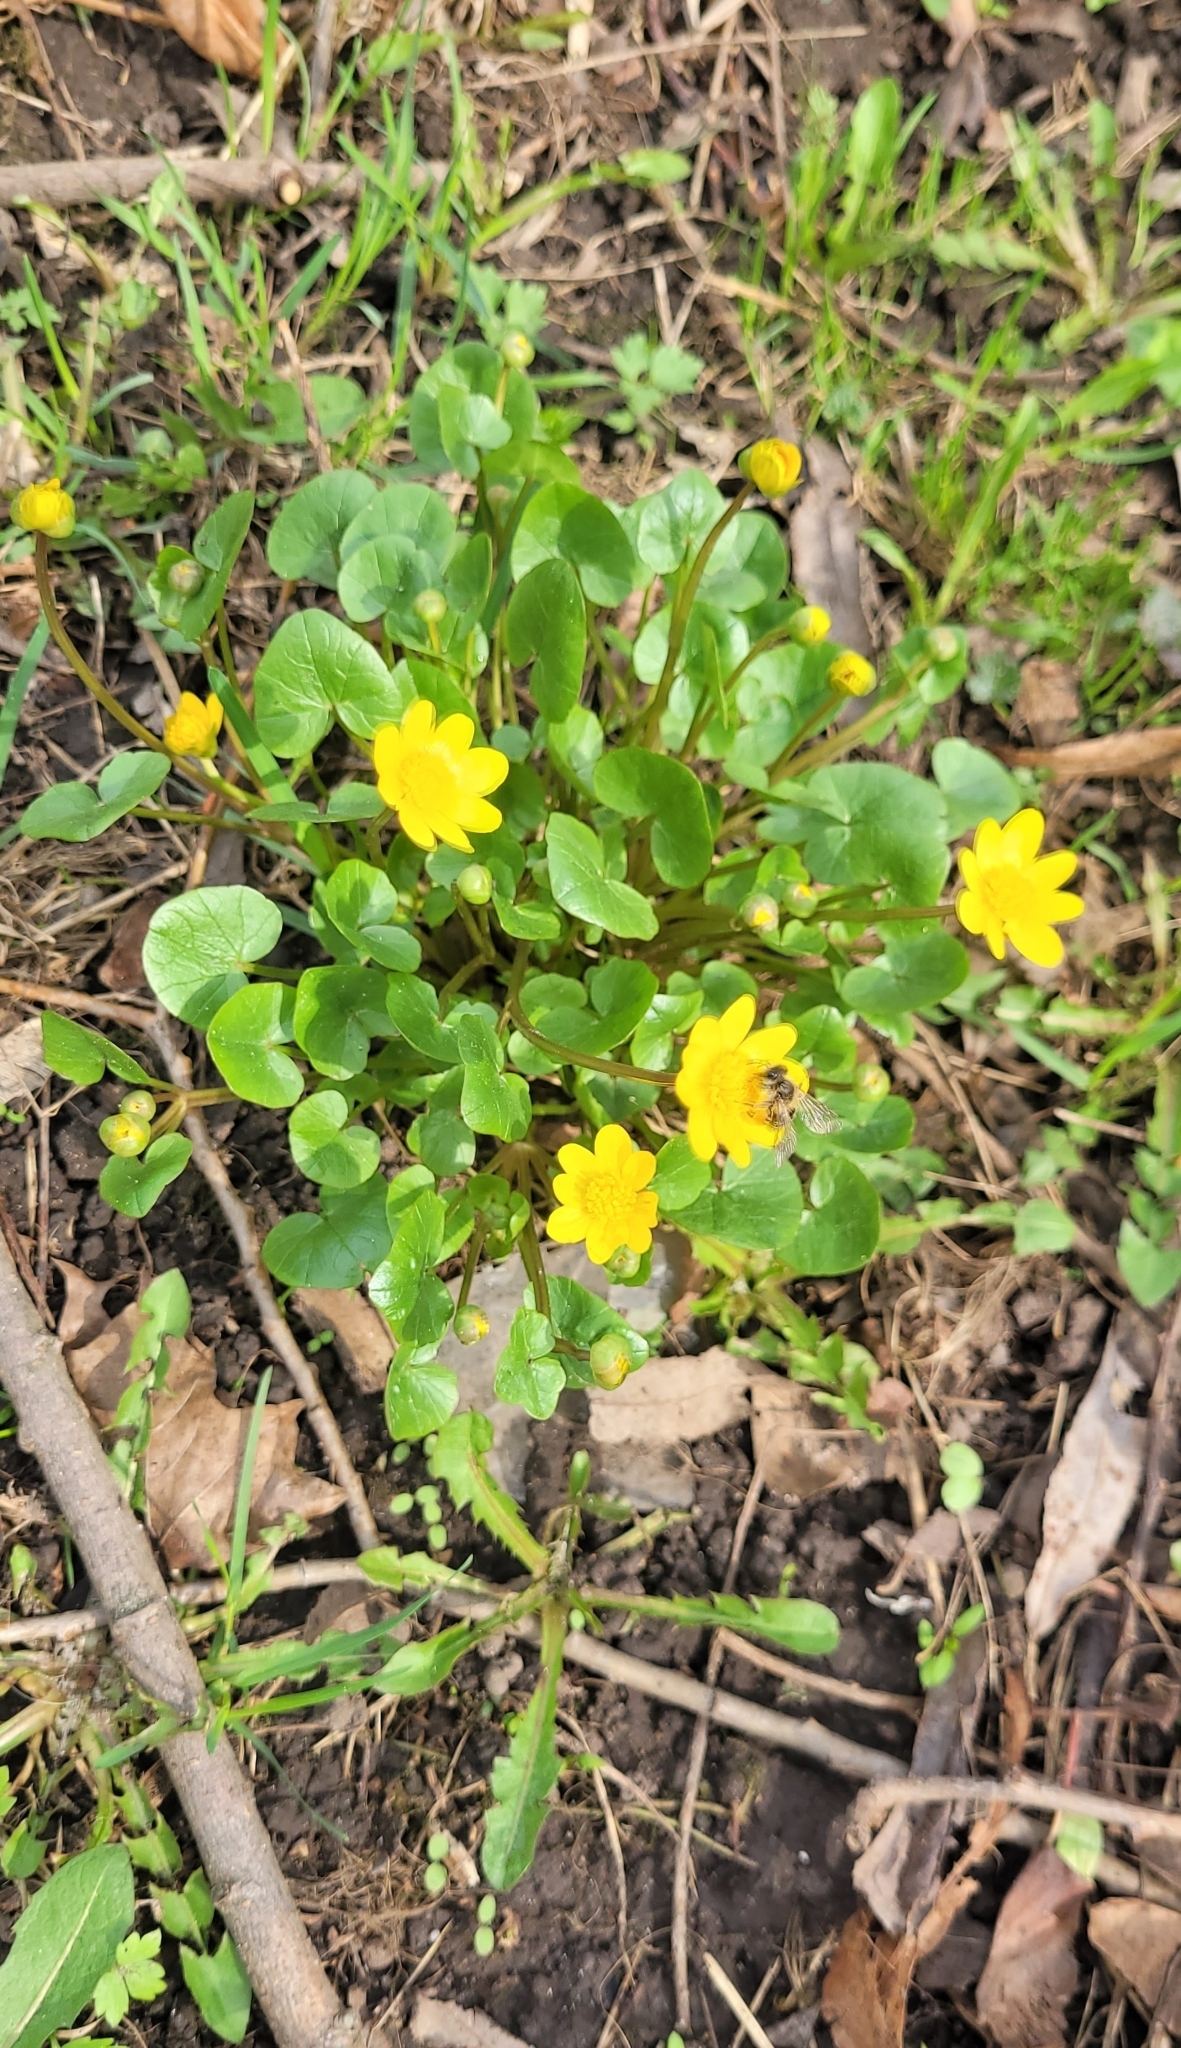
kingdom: Plantae
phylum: Tracheophyta
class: Magnoliopsida
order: Ranunculales
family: Ranunculaceae
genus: Ficaria
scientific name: Ficaria verna
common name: Lesser celandine
